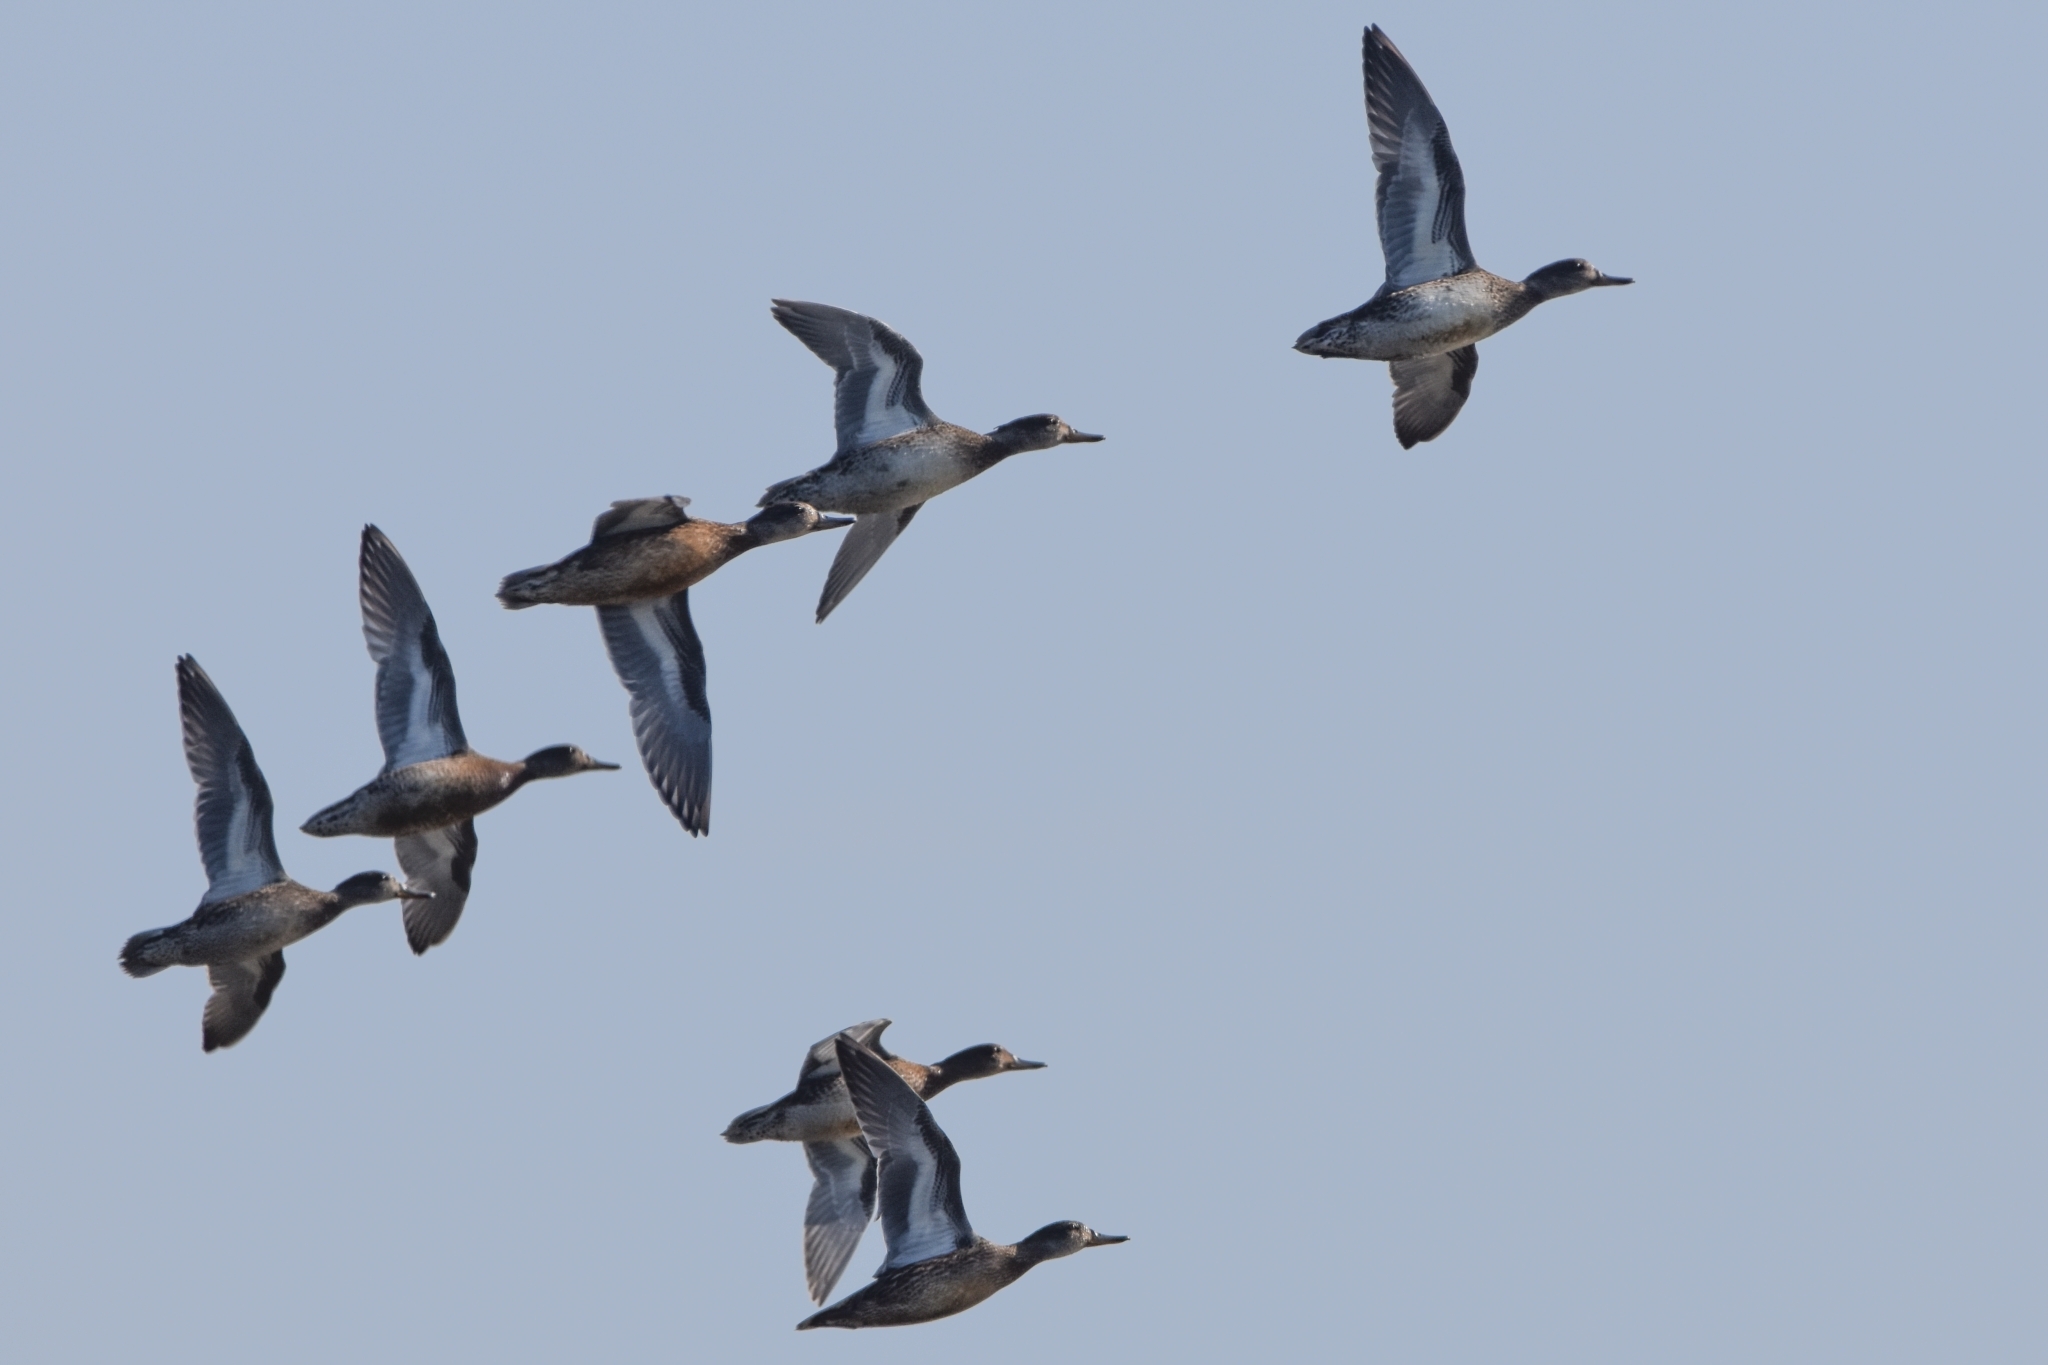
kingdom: Animalia
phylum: Chordata
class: Aves
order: Anseriformes
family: Anatidae
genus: Anas
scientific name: Anas crecca
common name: Eurasian teal
